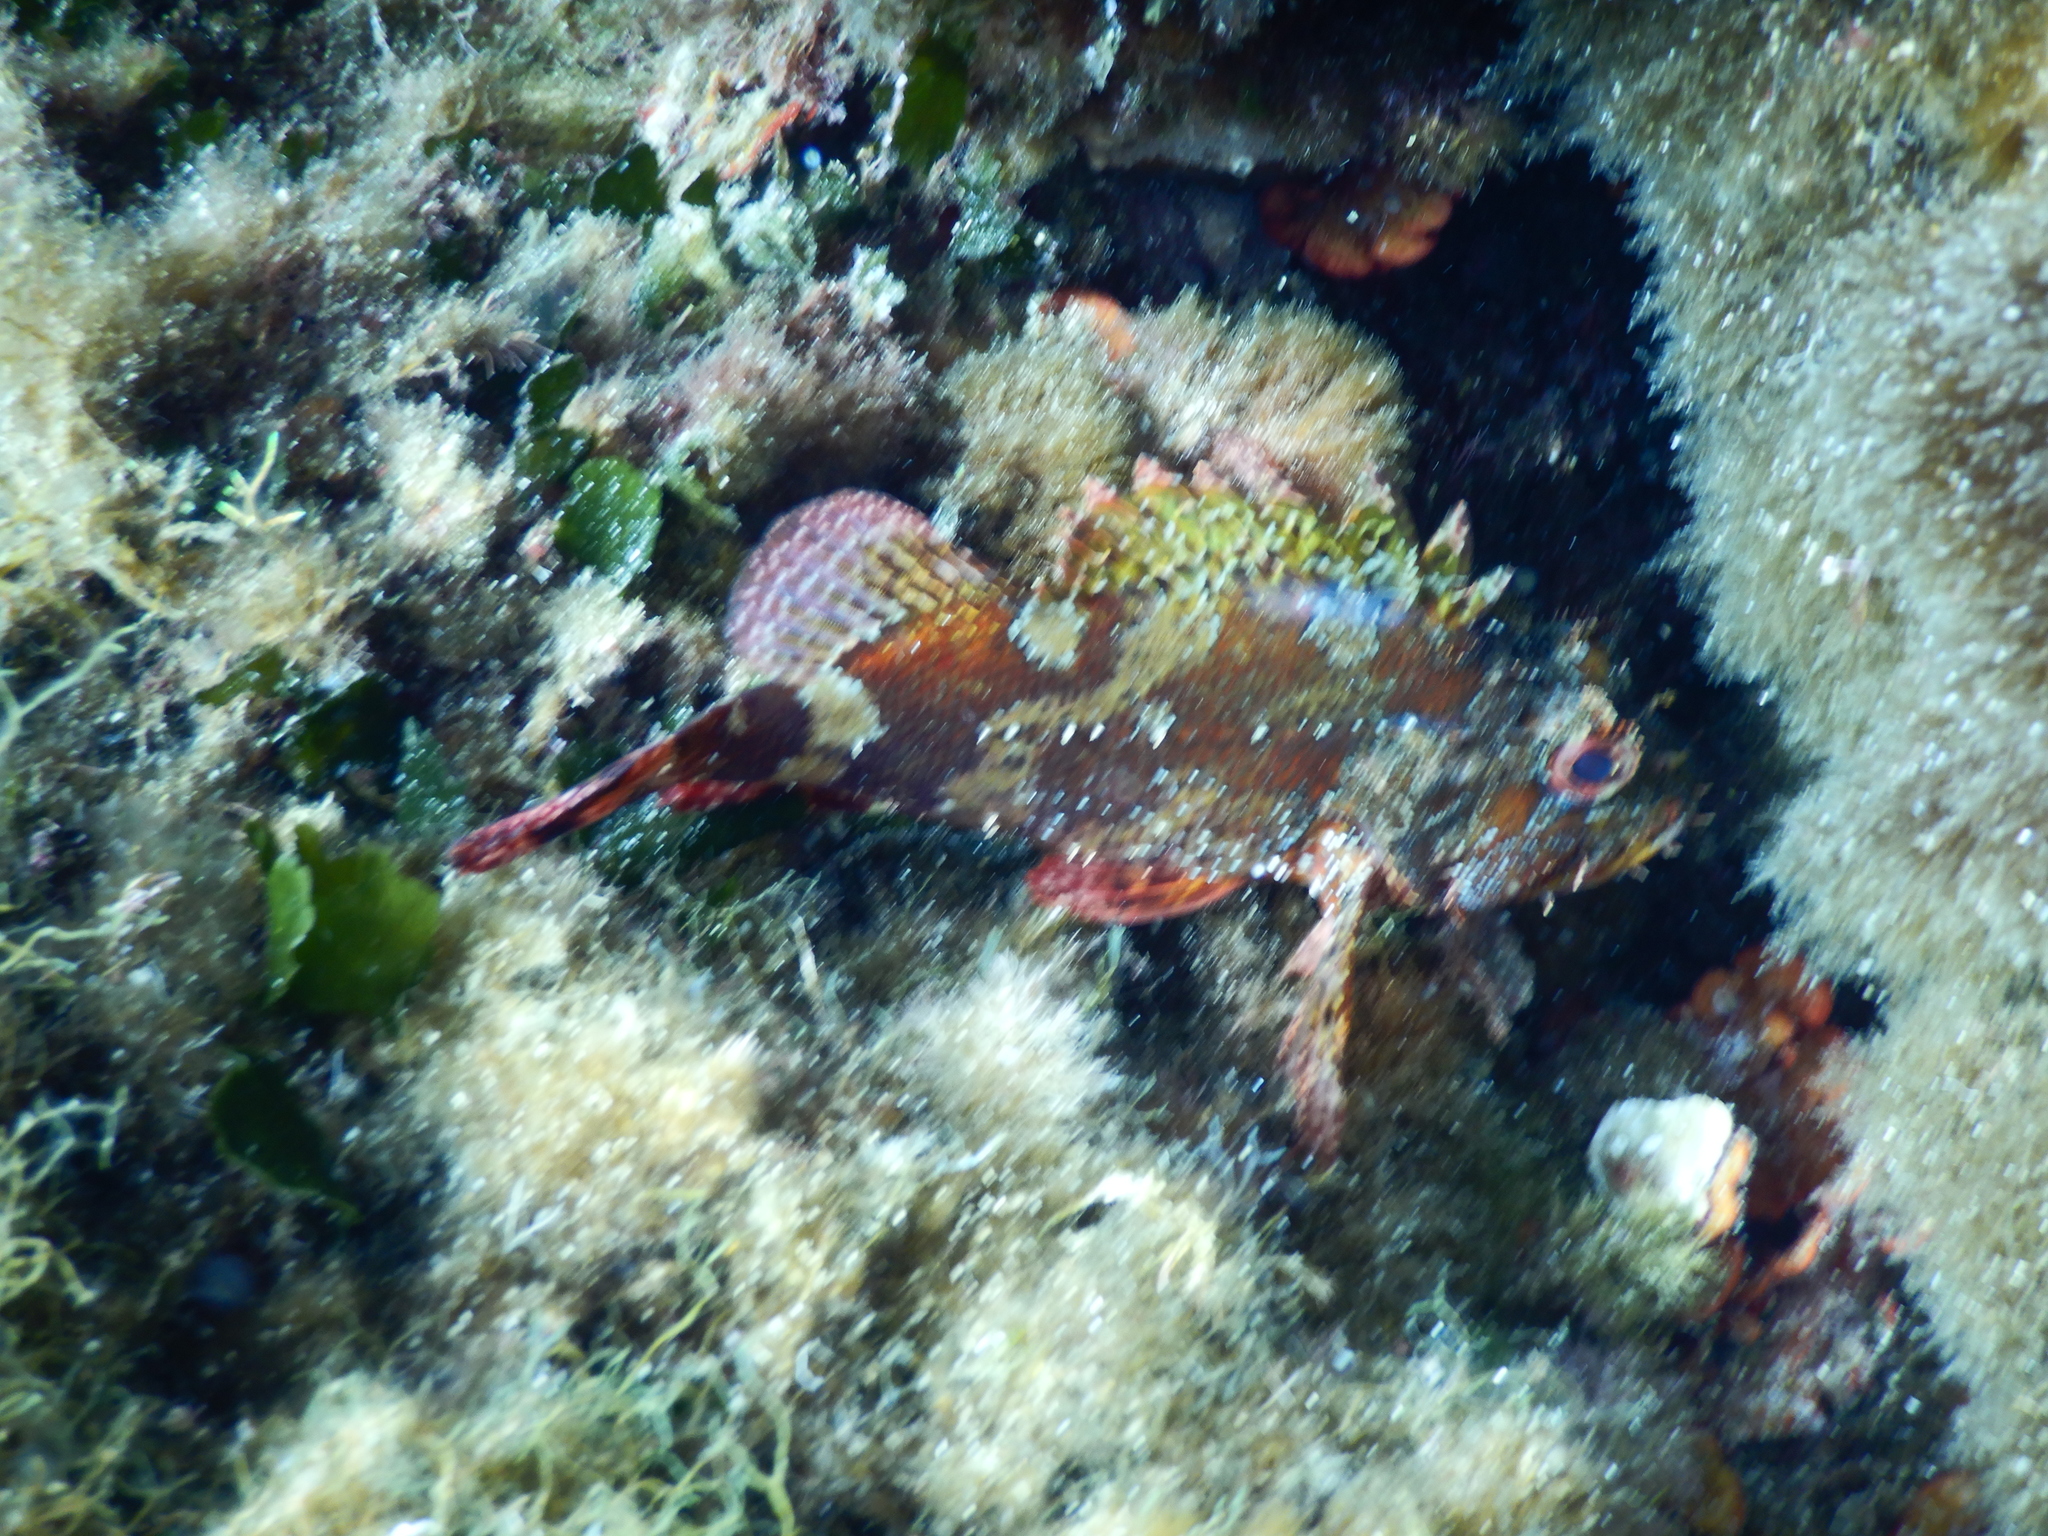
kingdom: Animalia
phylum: Chordata
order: Scorpaeniformes
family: Scorpaenidae
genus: Scorpaena
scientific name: Scorpaena maderensis
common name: Madeira rockfish
